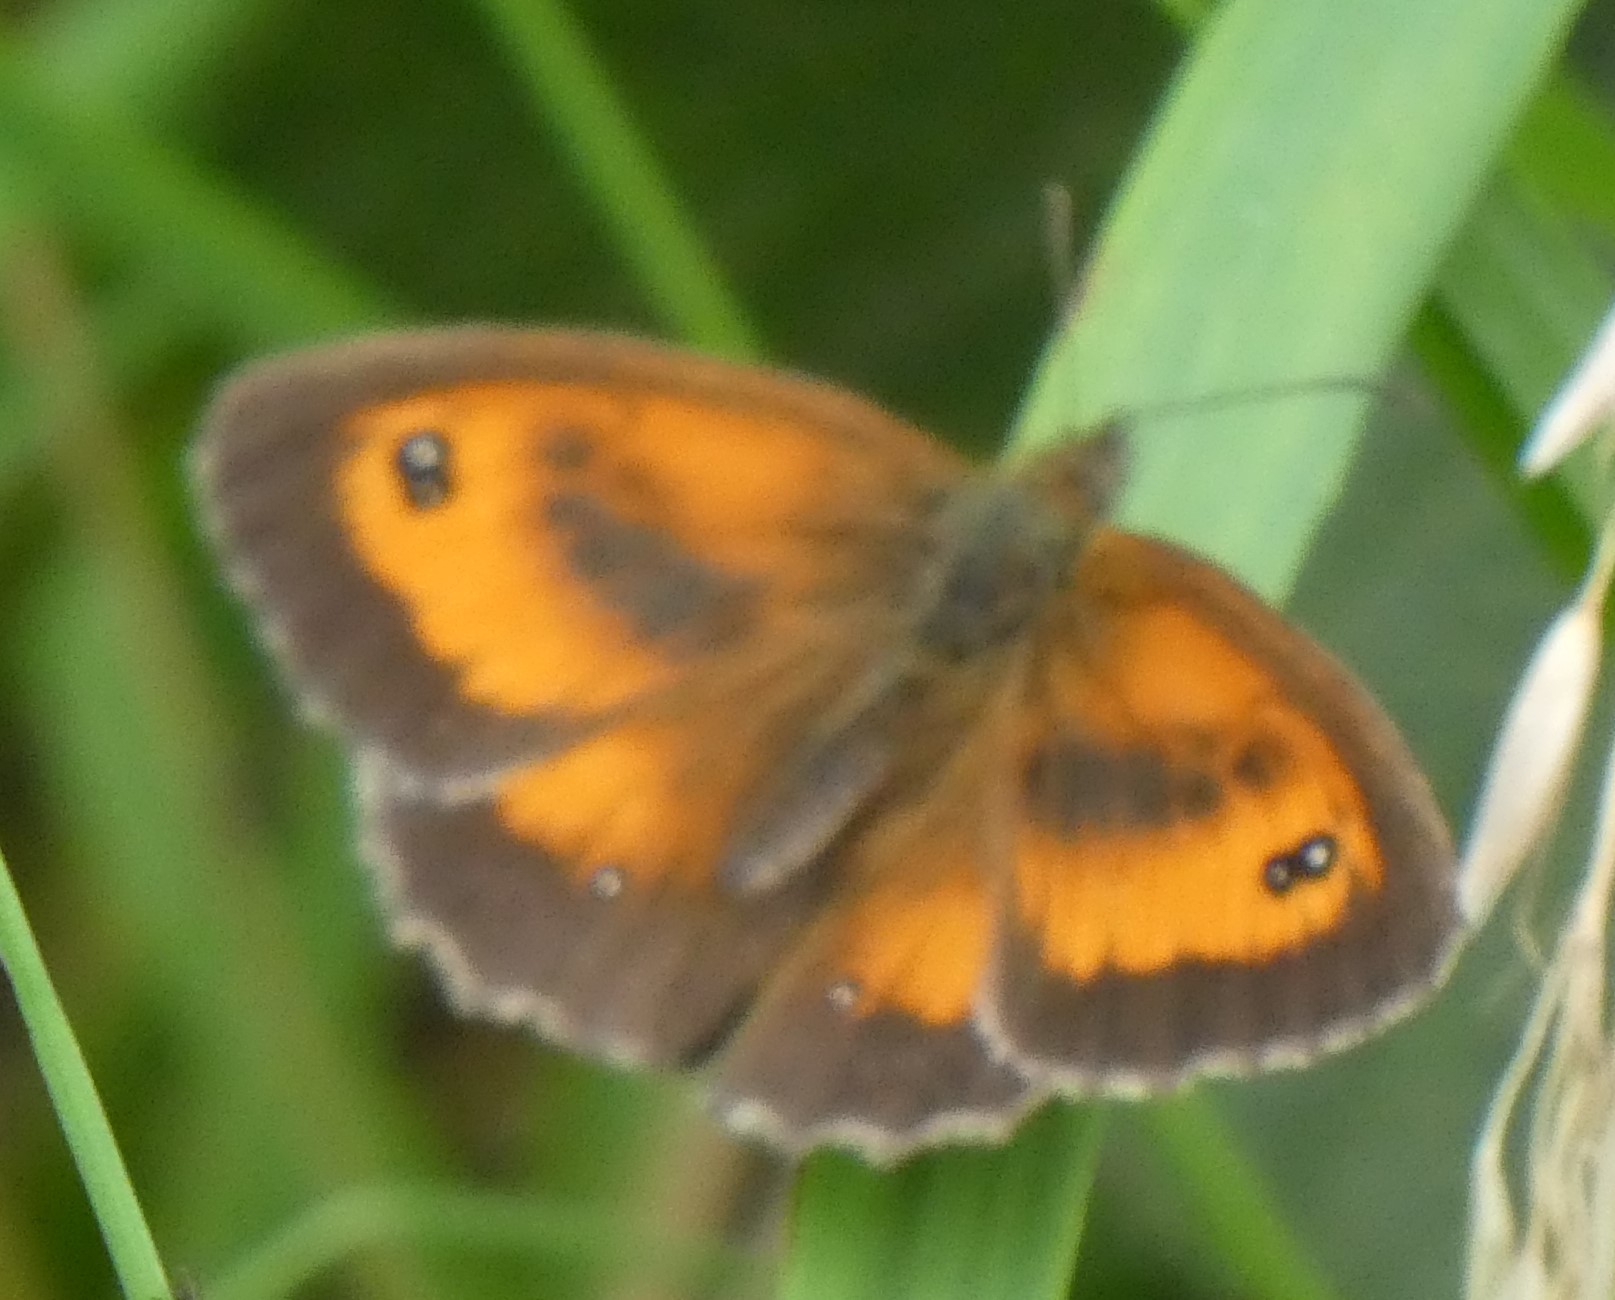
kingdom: Animalia
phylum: Arthropoda
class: Insecta
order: Lepidoptera
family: Nymphalidae
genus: Pyronia
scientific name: Pyronia tithonus
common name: Gatekeeper
